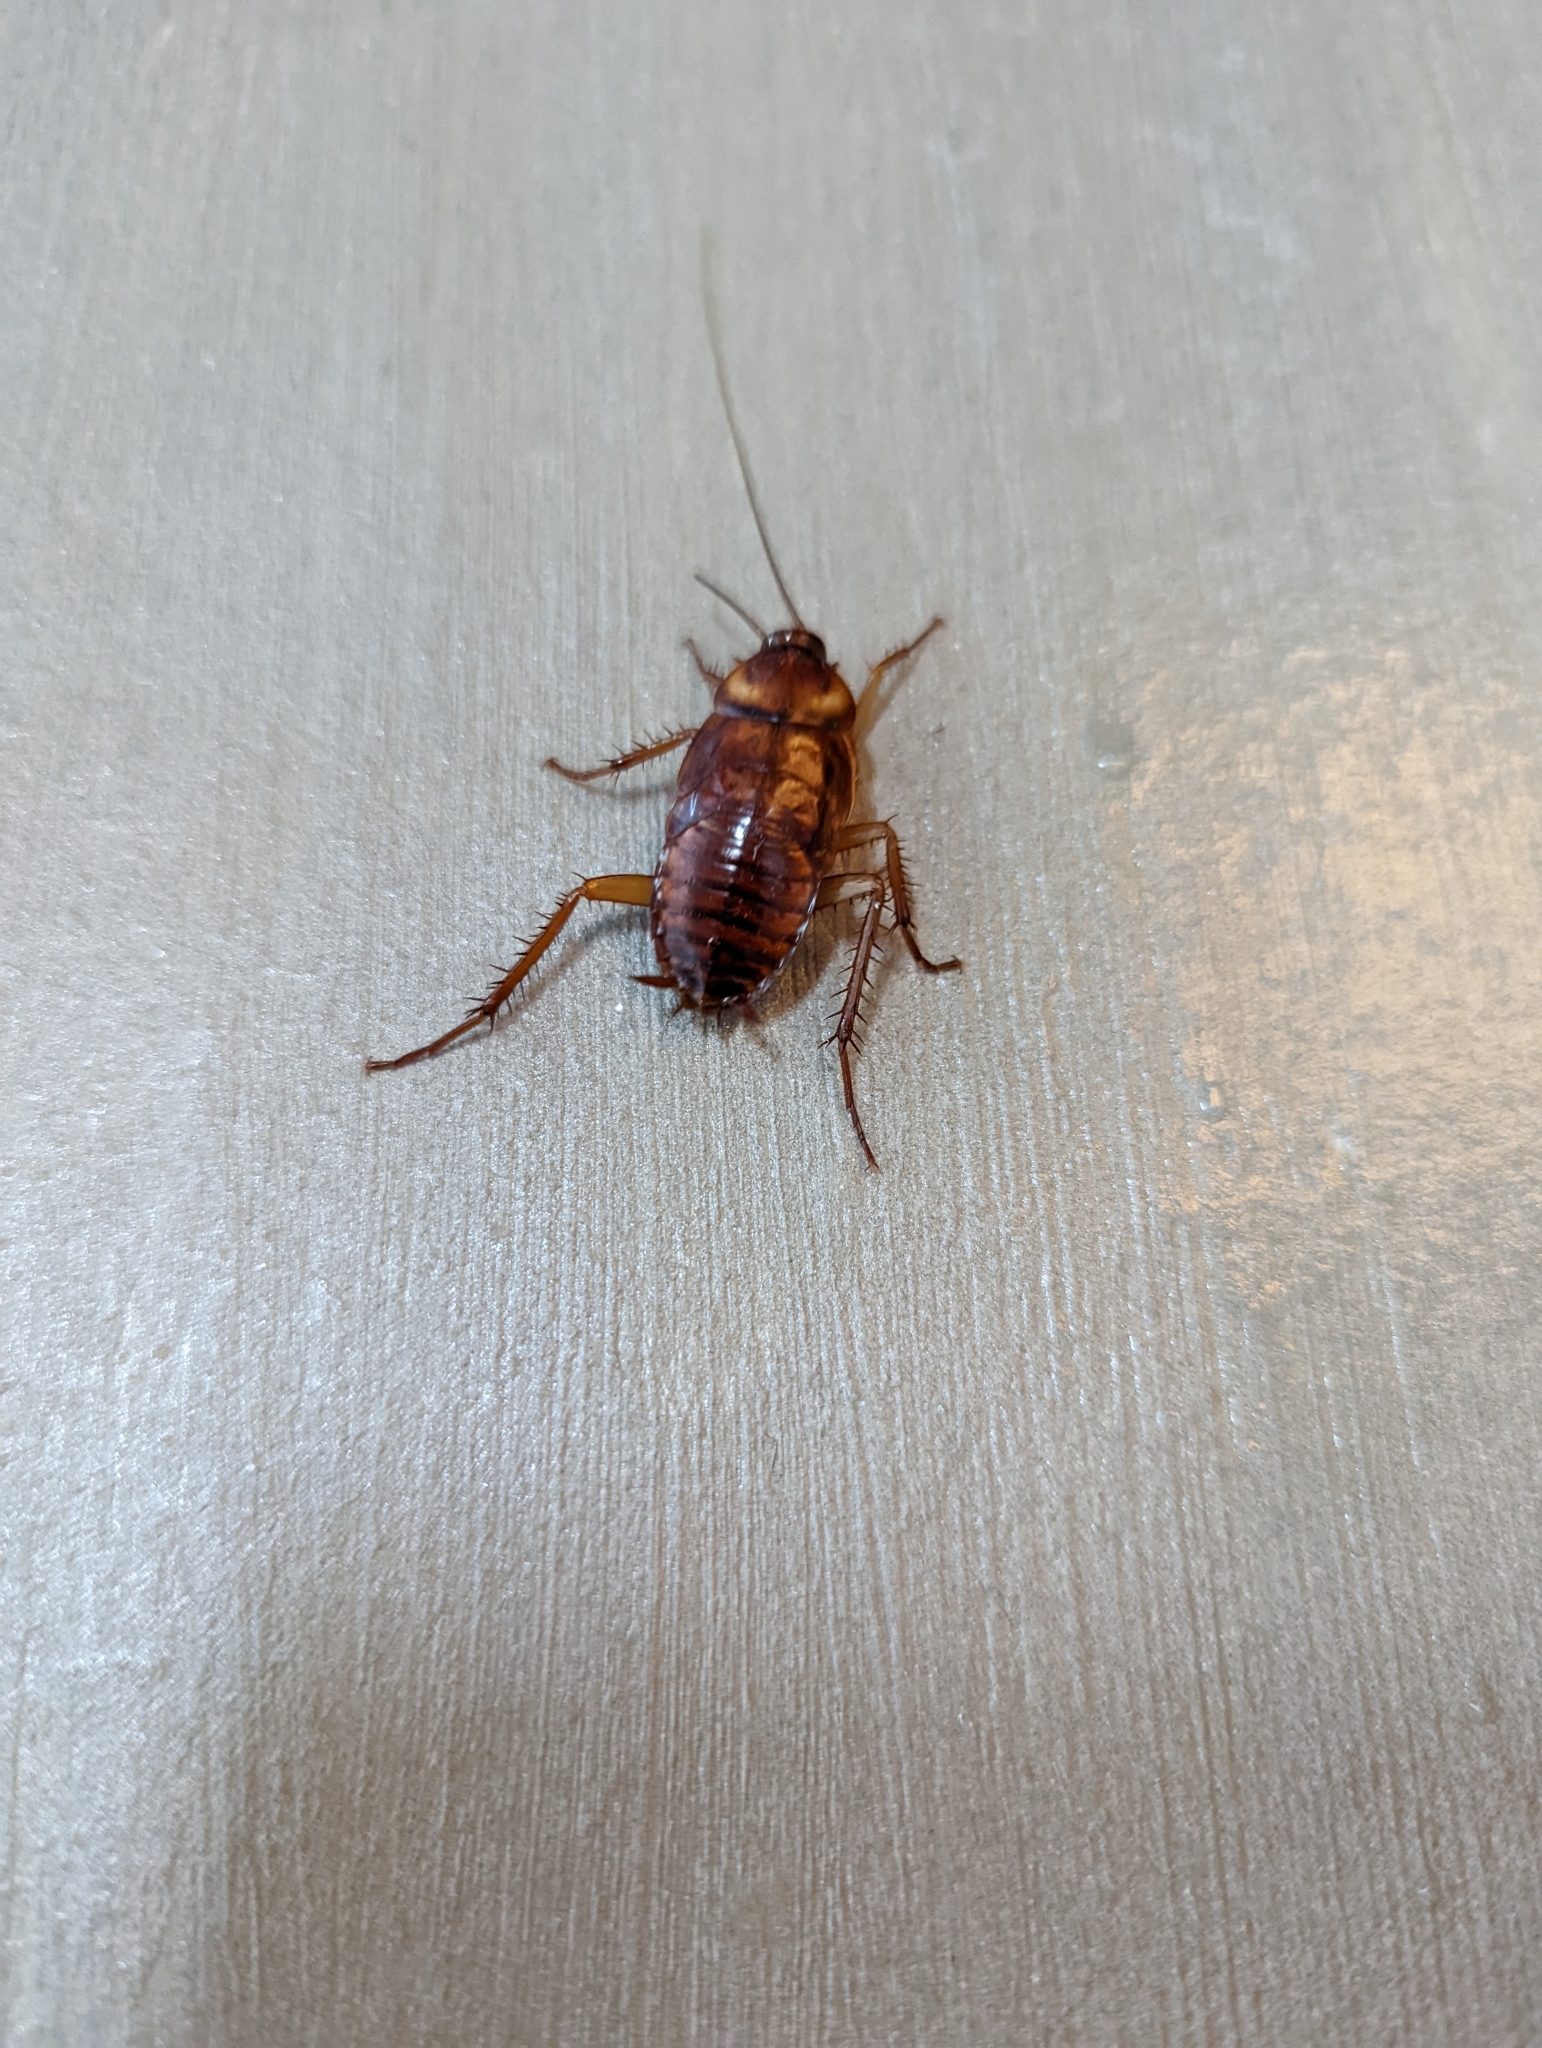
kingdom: Animalia
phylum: Arthropoda
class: Insecta
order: Blattodea
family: Blattidae
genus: Periplaneta
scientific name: Periplaneta americana
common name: American cockroach
